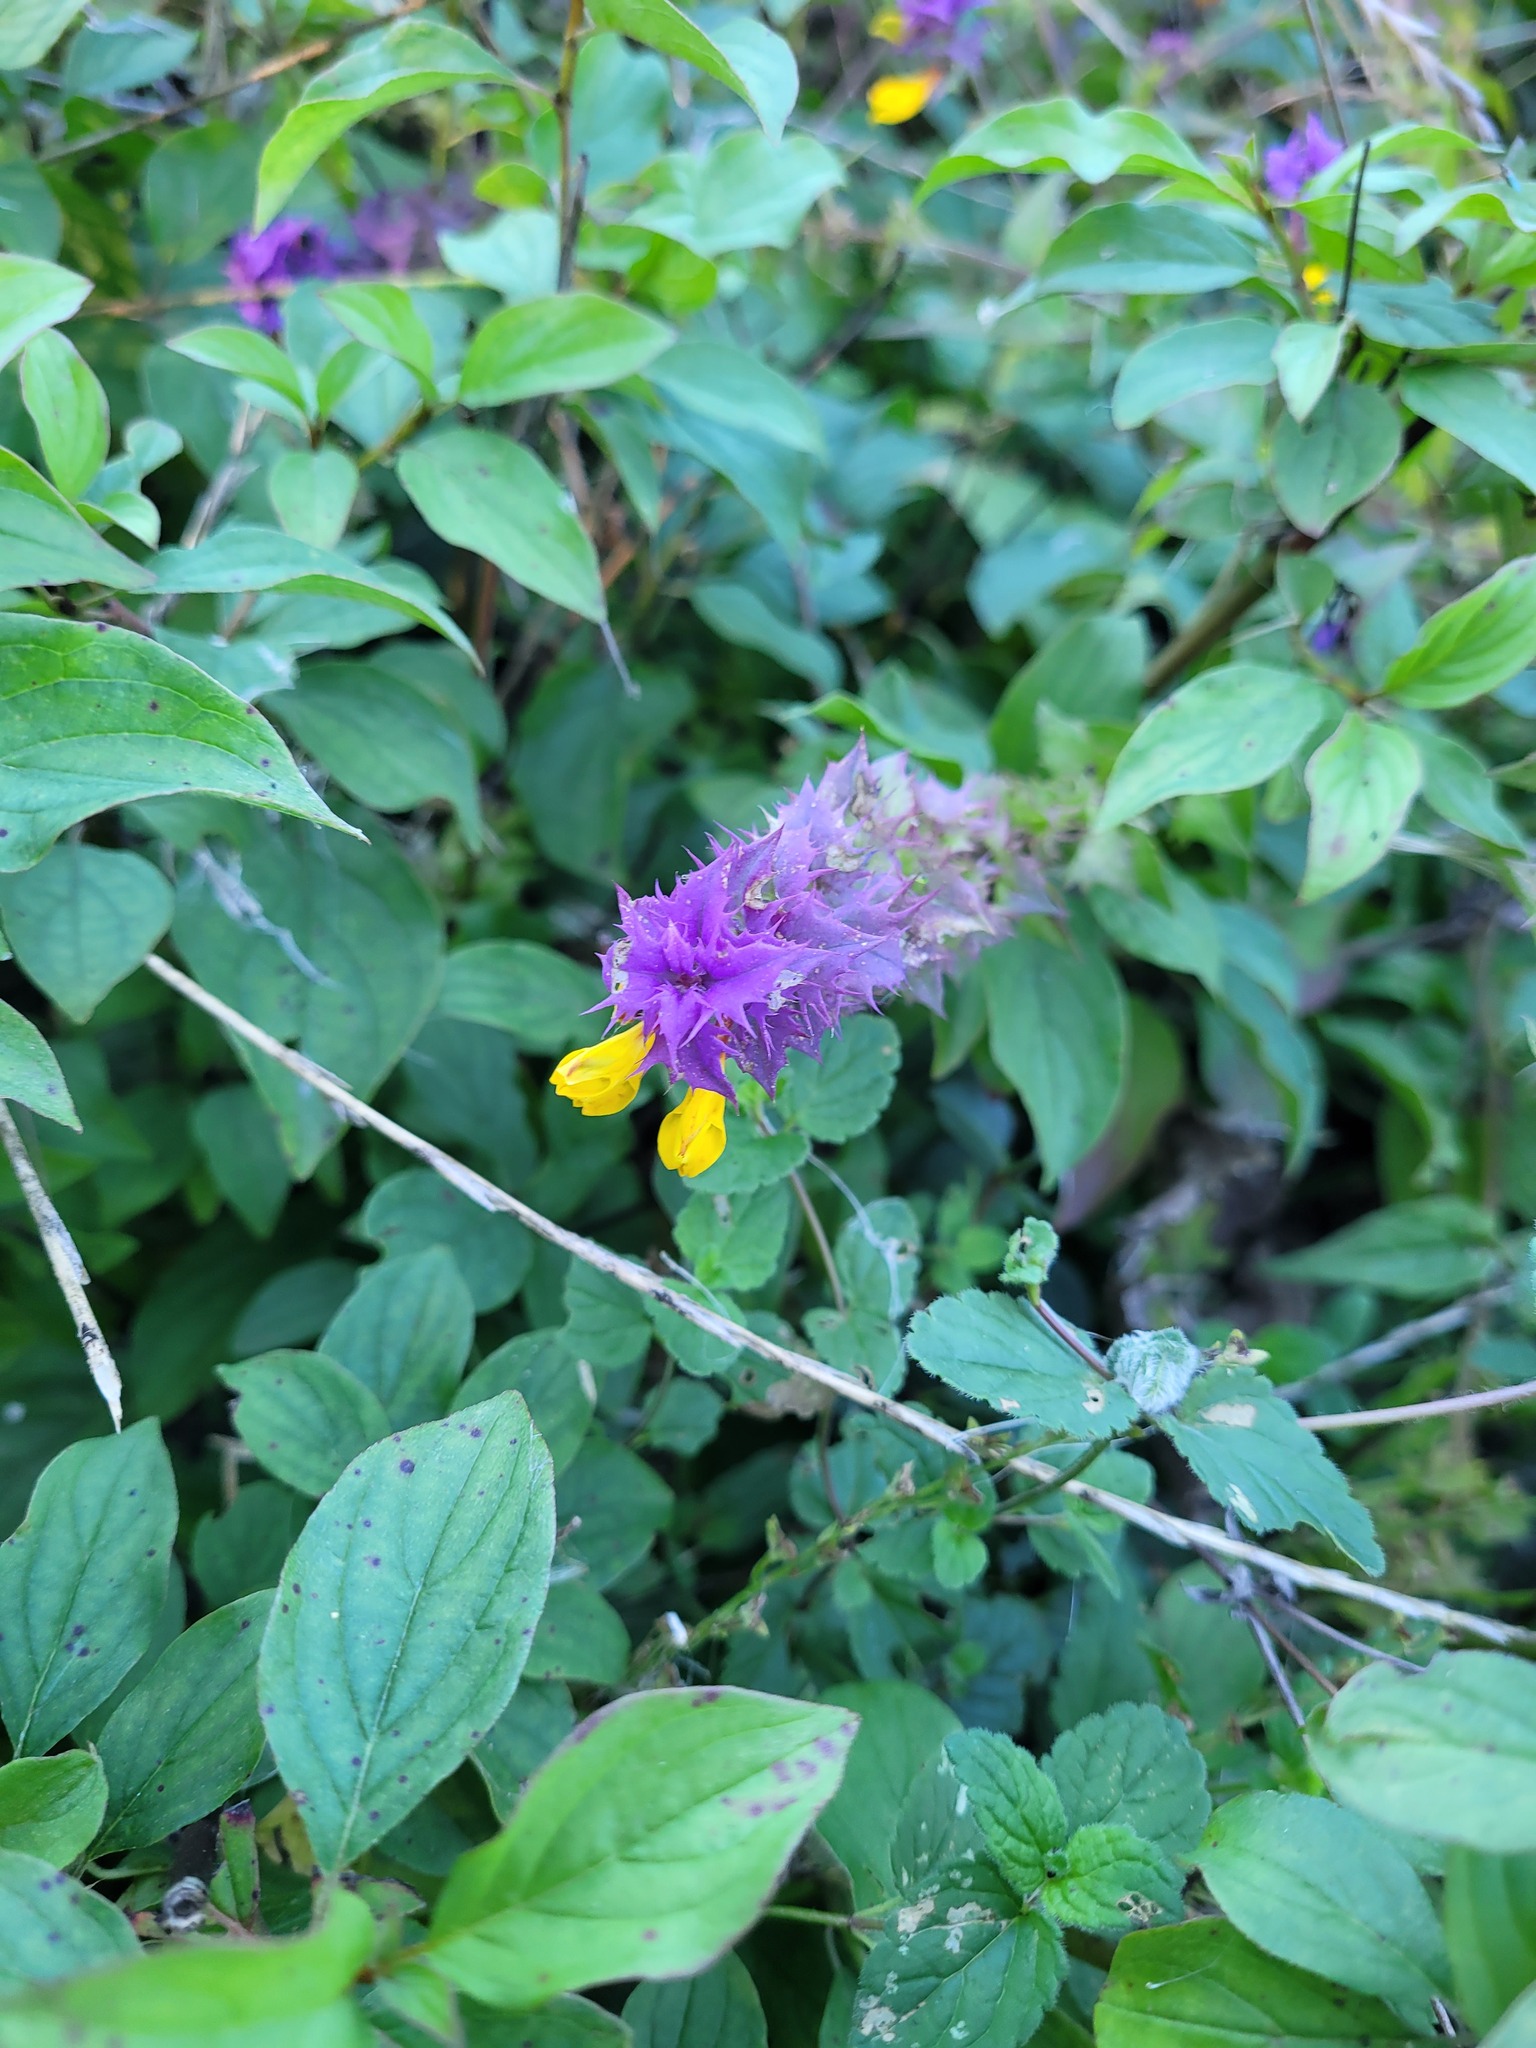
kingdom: Plantae
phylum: Tracheophyta
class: Magnoliopsida
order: Lamiales
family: Orobanchaceae
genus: Melampyrum
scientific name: Melampyrum nemorosum
